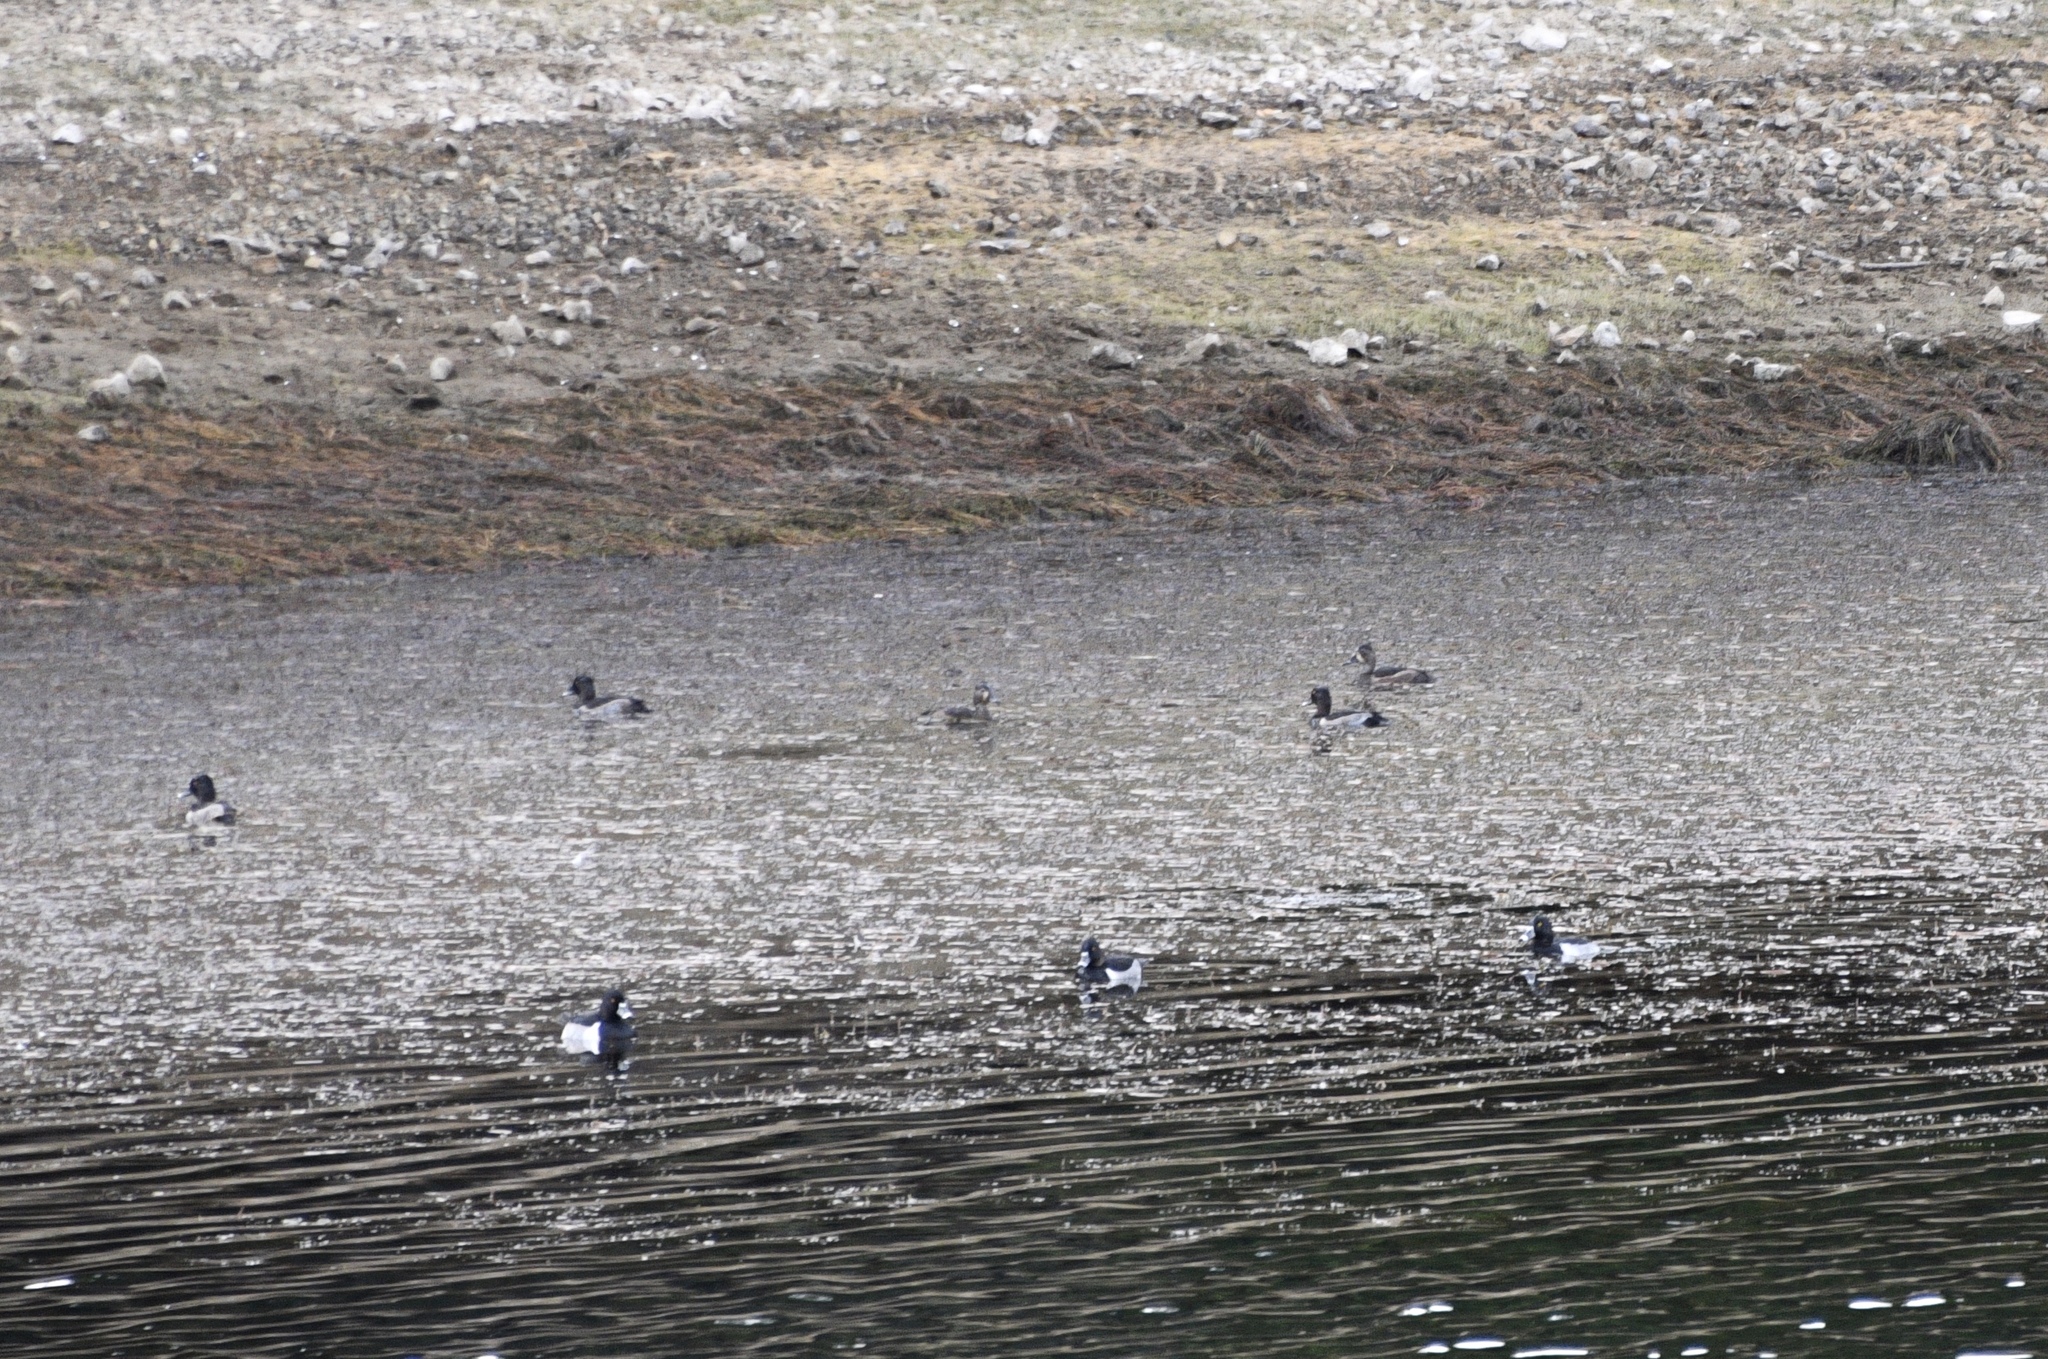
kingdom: Animalia
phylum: Chordata
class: Aves
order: Anseriformes
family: Anatidae
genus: Aythya
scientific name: Aythya collaris
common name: Ring-necked duck
